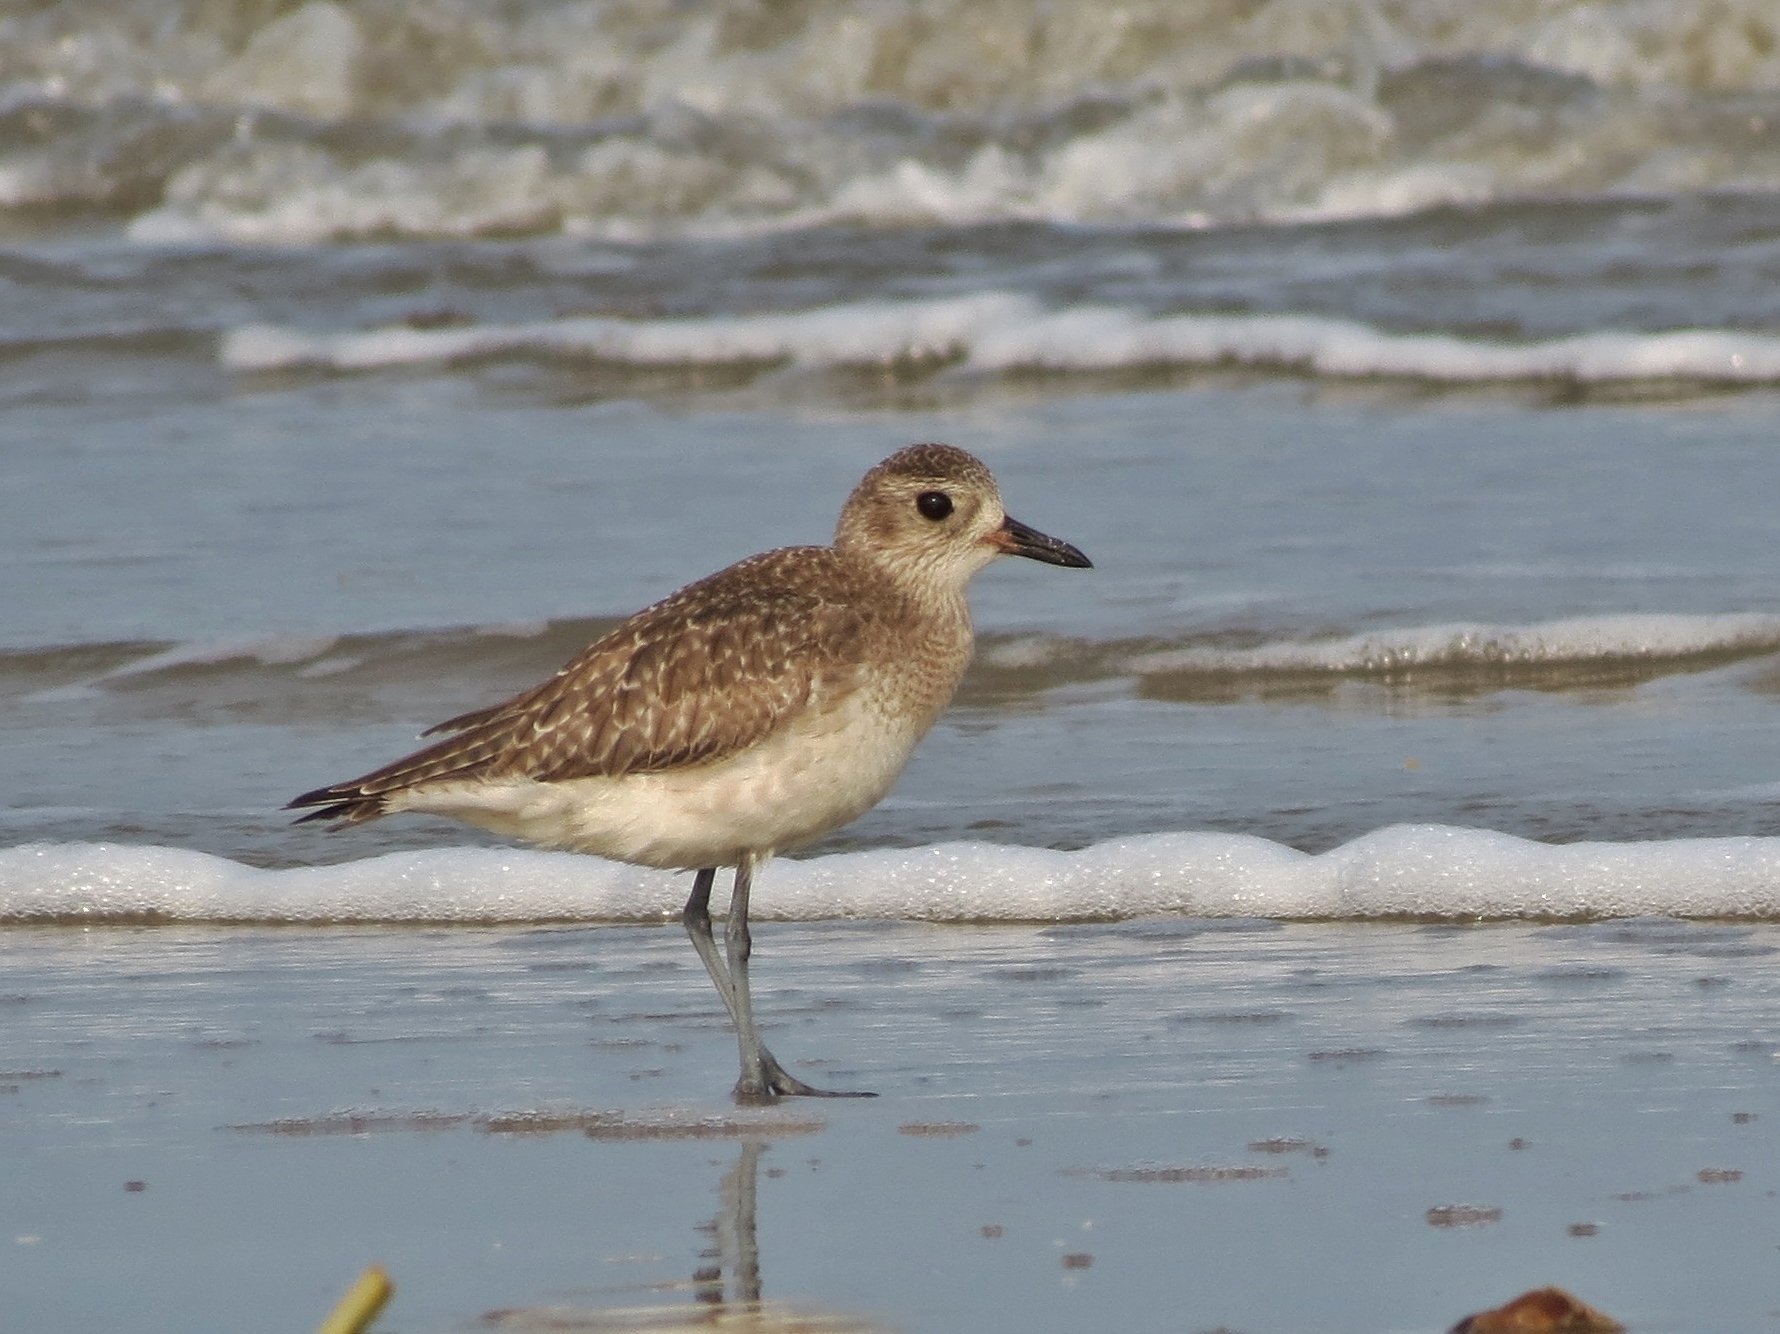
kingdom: Animalia
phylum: Chordata
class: Aves
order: Charadriiformes
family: Charadriidae
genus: Pluvialis
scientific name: Pluvialis squatarola
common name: Grey plover
